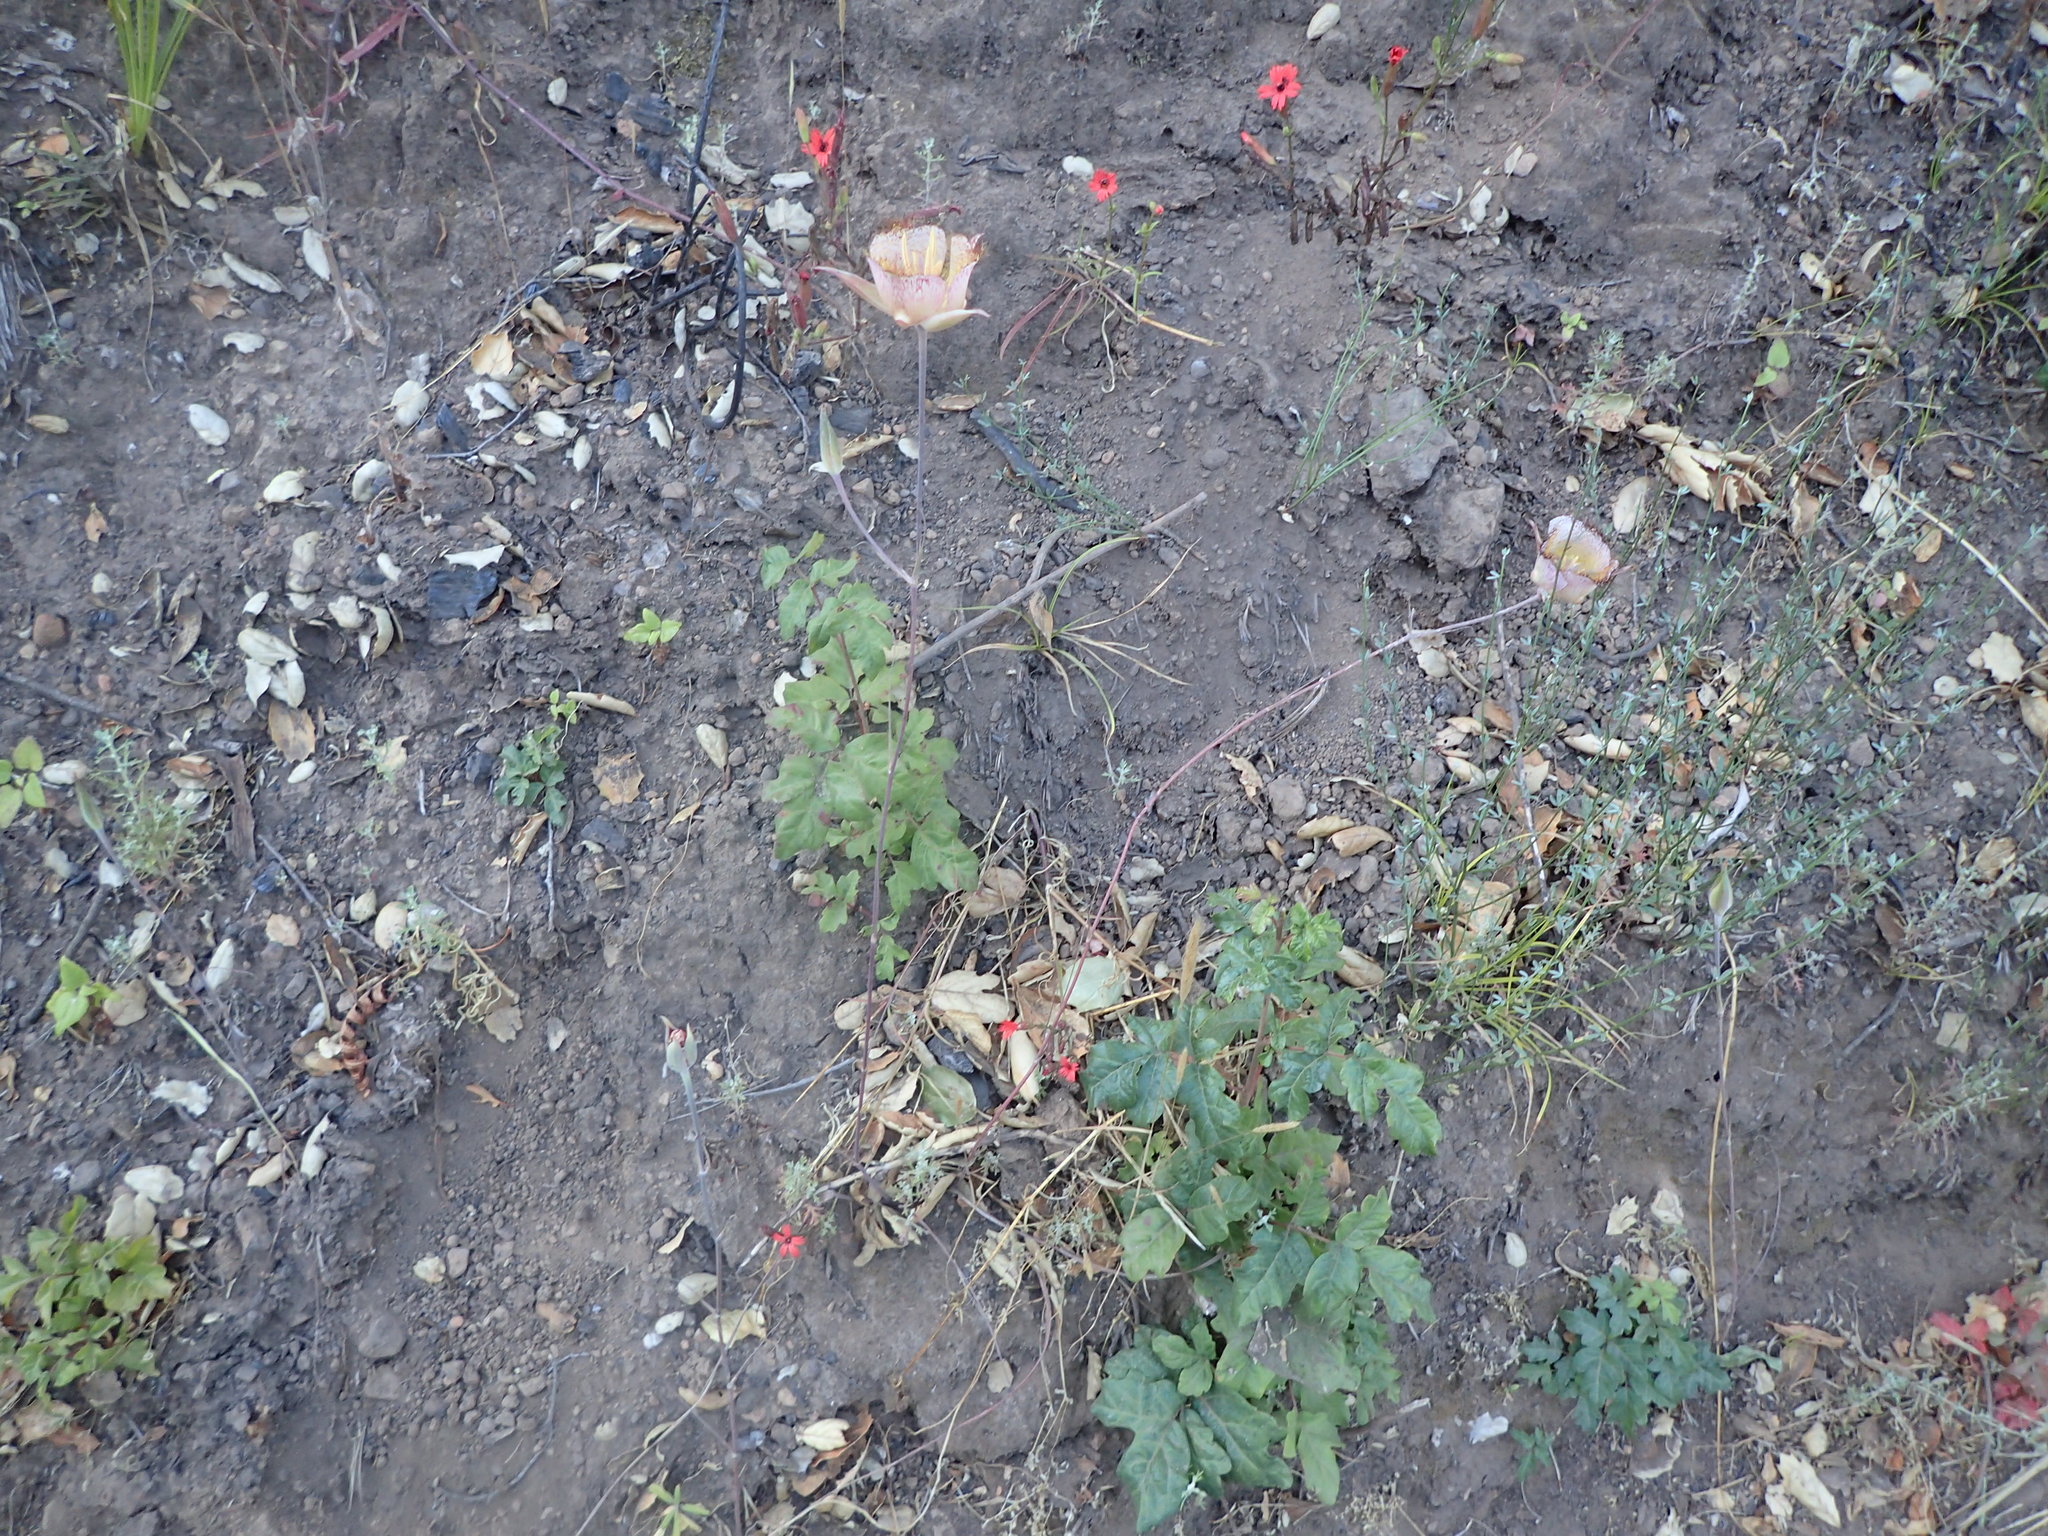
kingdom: Plantae
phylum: Tracheophyta
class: Liliopsida
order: Liliales
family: Liliaceae
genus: Calochortus
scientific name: Calochortus fimbriatus
